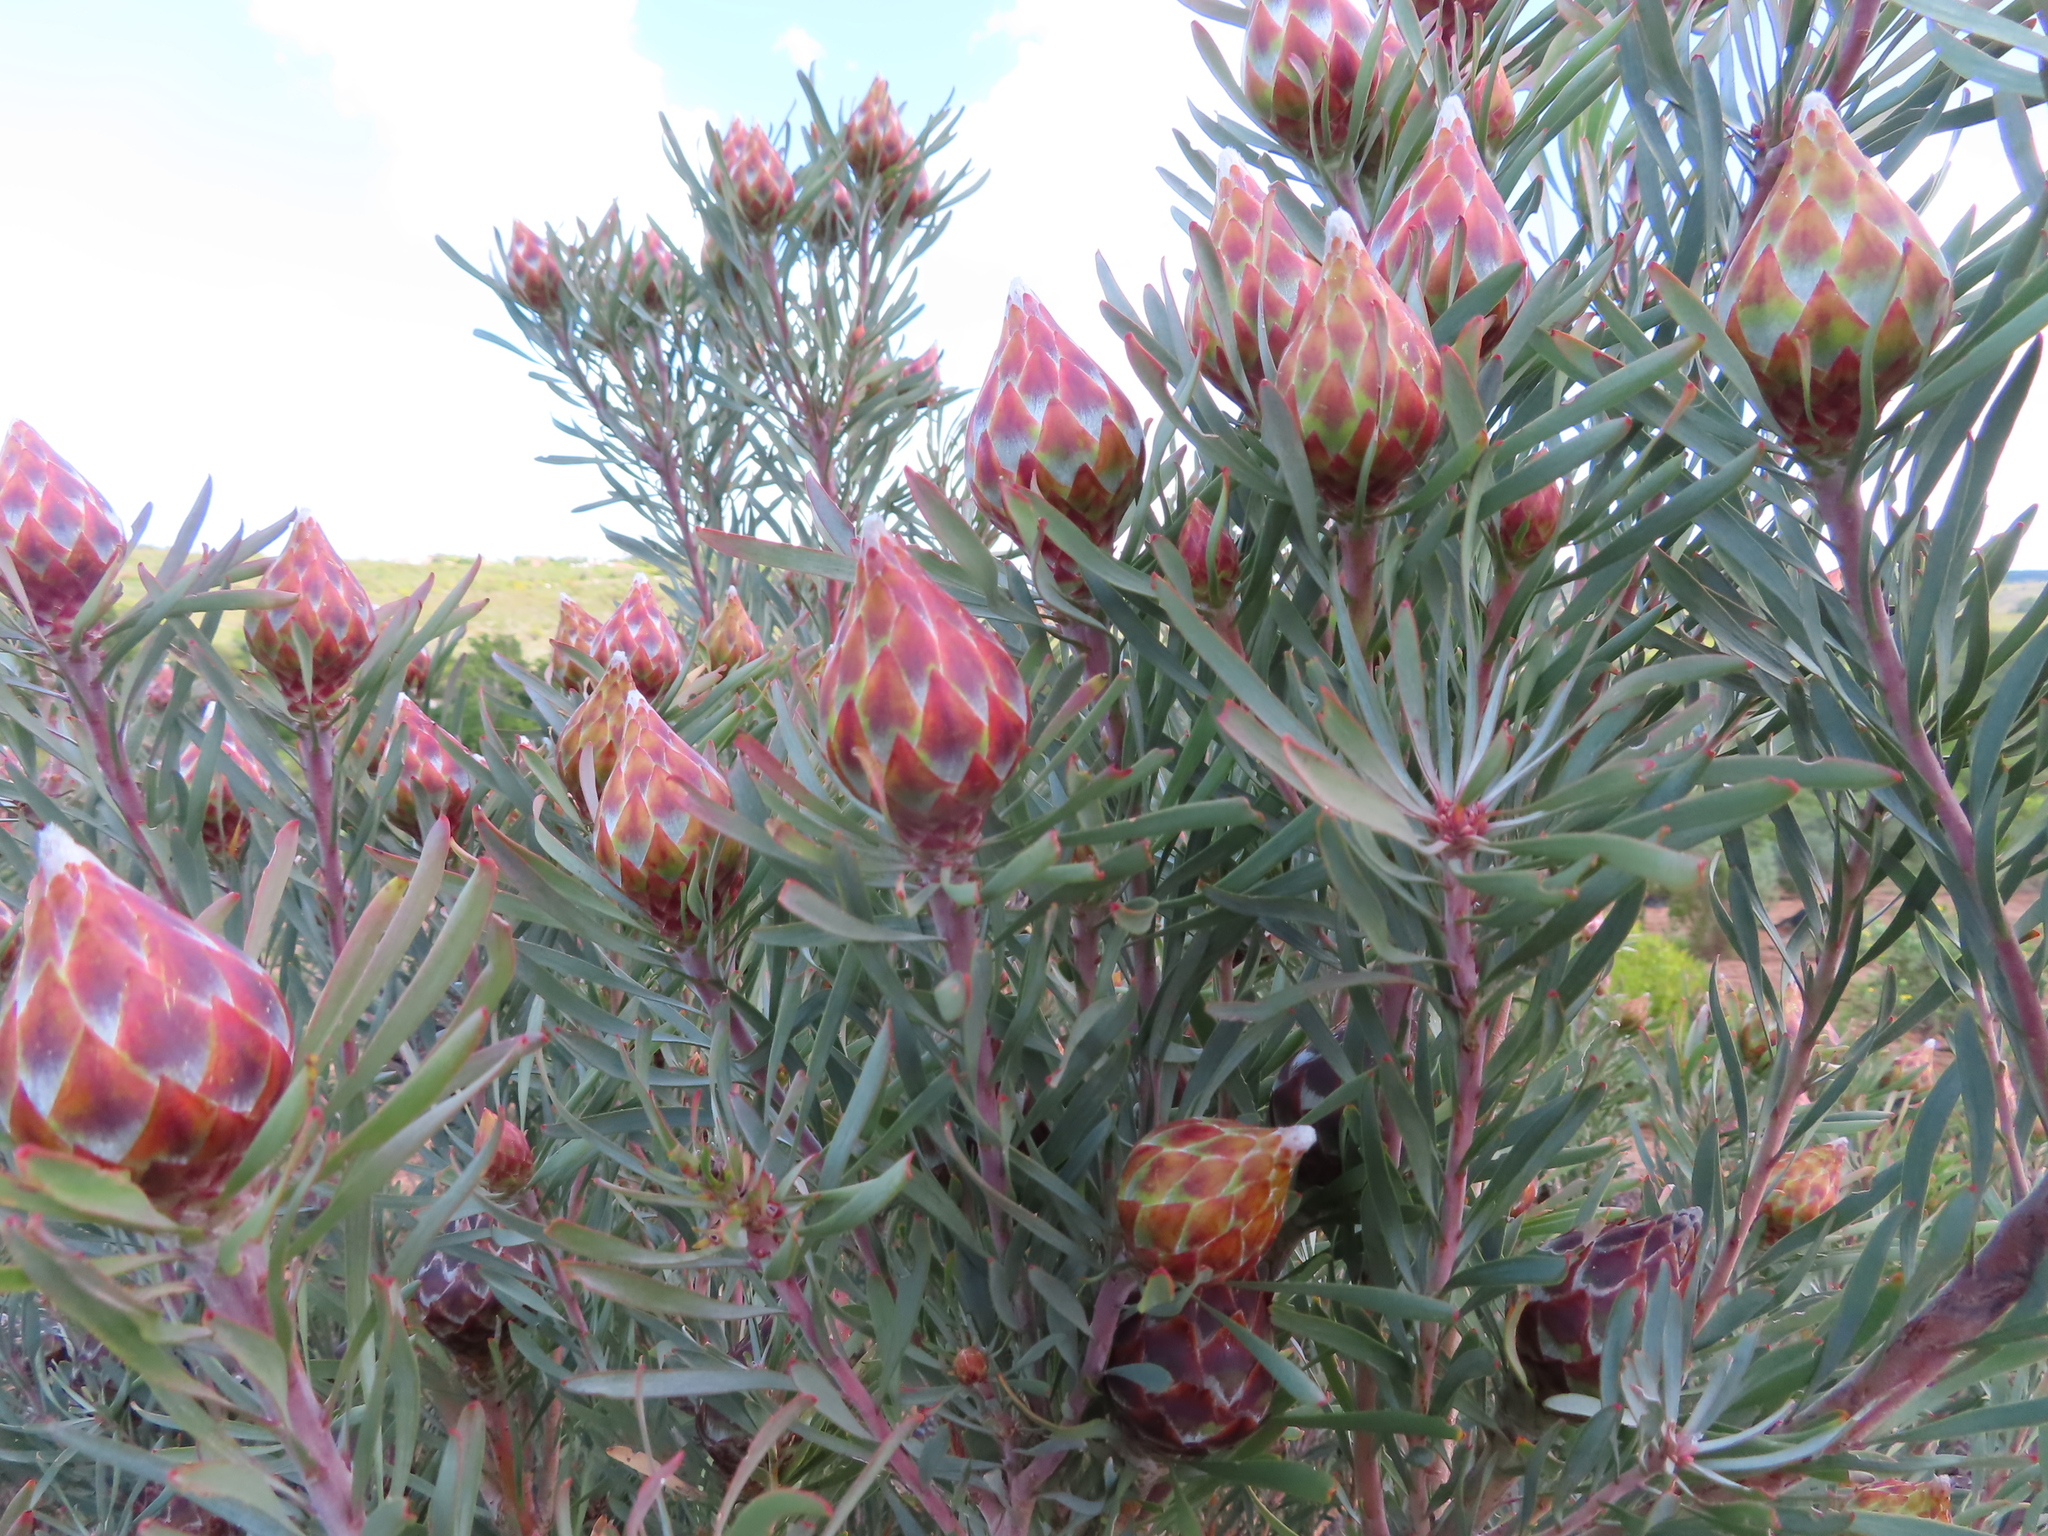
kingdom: Plantae
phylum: Tracheophyta
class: Magnoliopsida
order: Proteales
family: Proteaceae
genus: Leucadendron
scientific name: Leucadendron rubrum
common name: Spinning top
